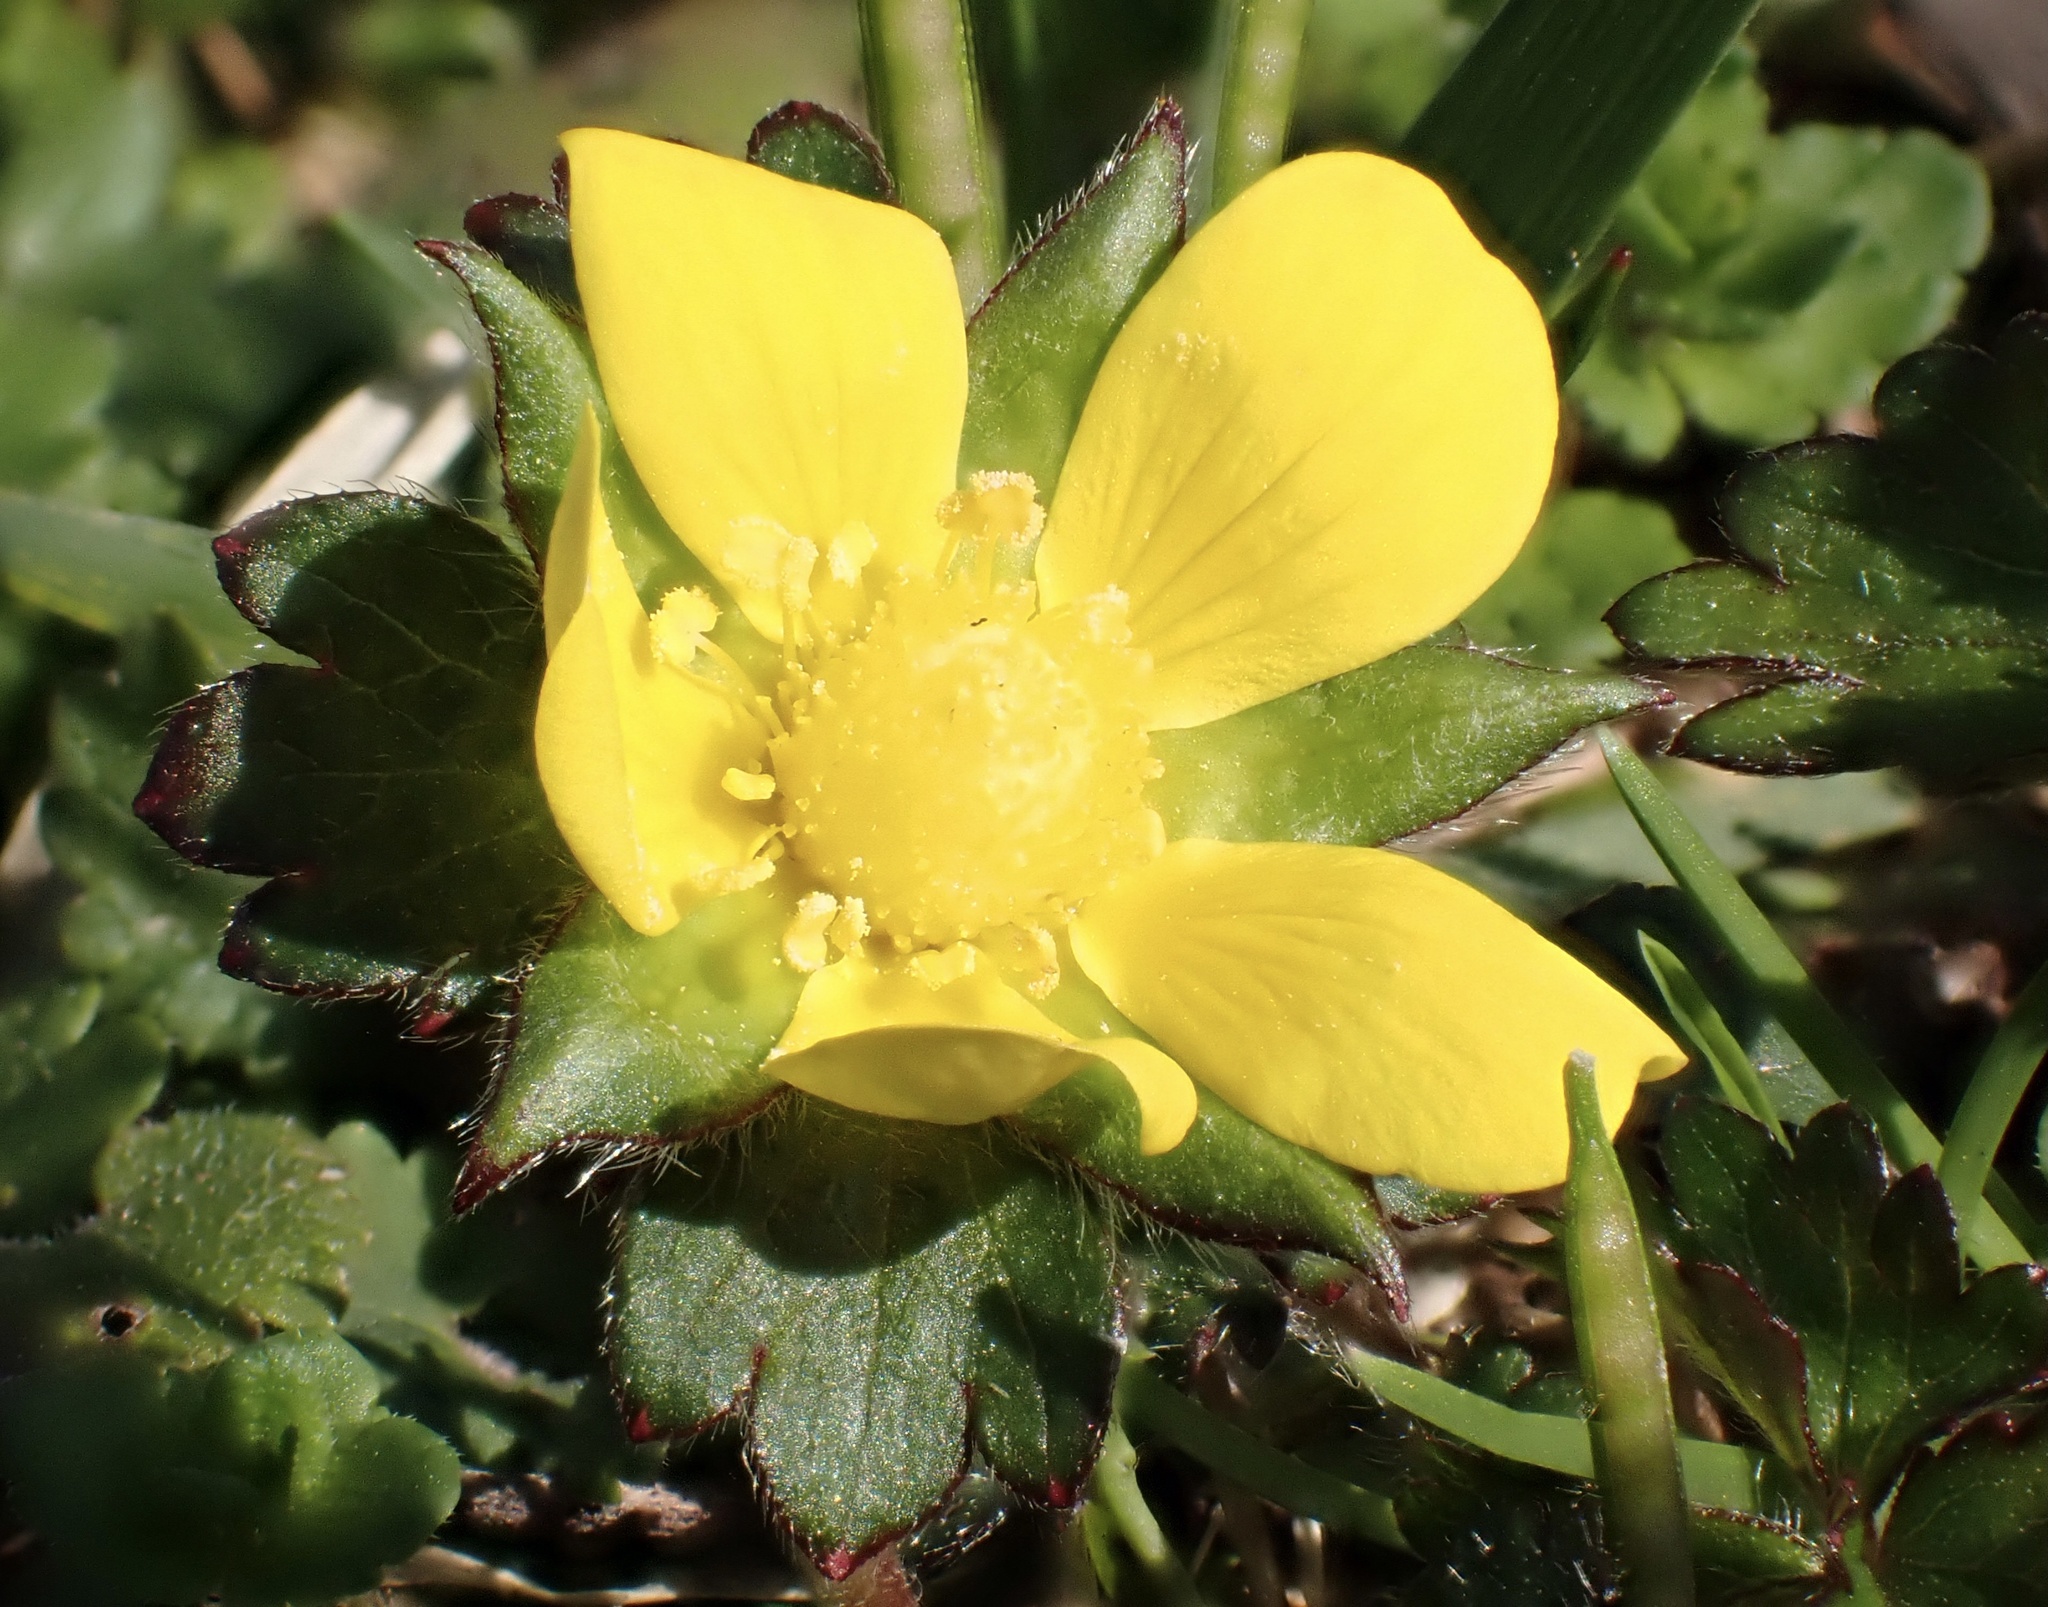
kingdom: Plantae
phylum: Tracheophyta
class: Magnoliopsida
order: Rosales
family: Rosaceae
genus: Potentilla
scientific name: Potentilla indica
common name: Yellow-flowered strawberry
